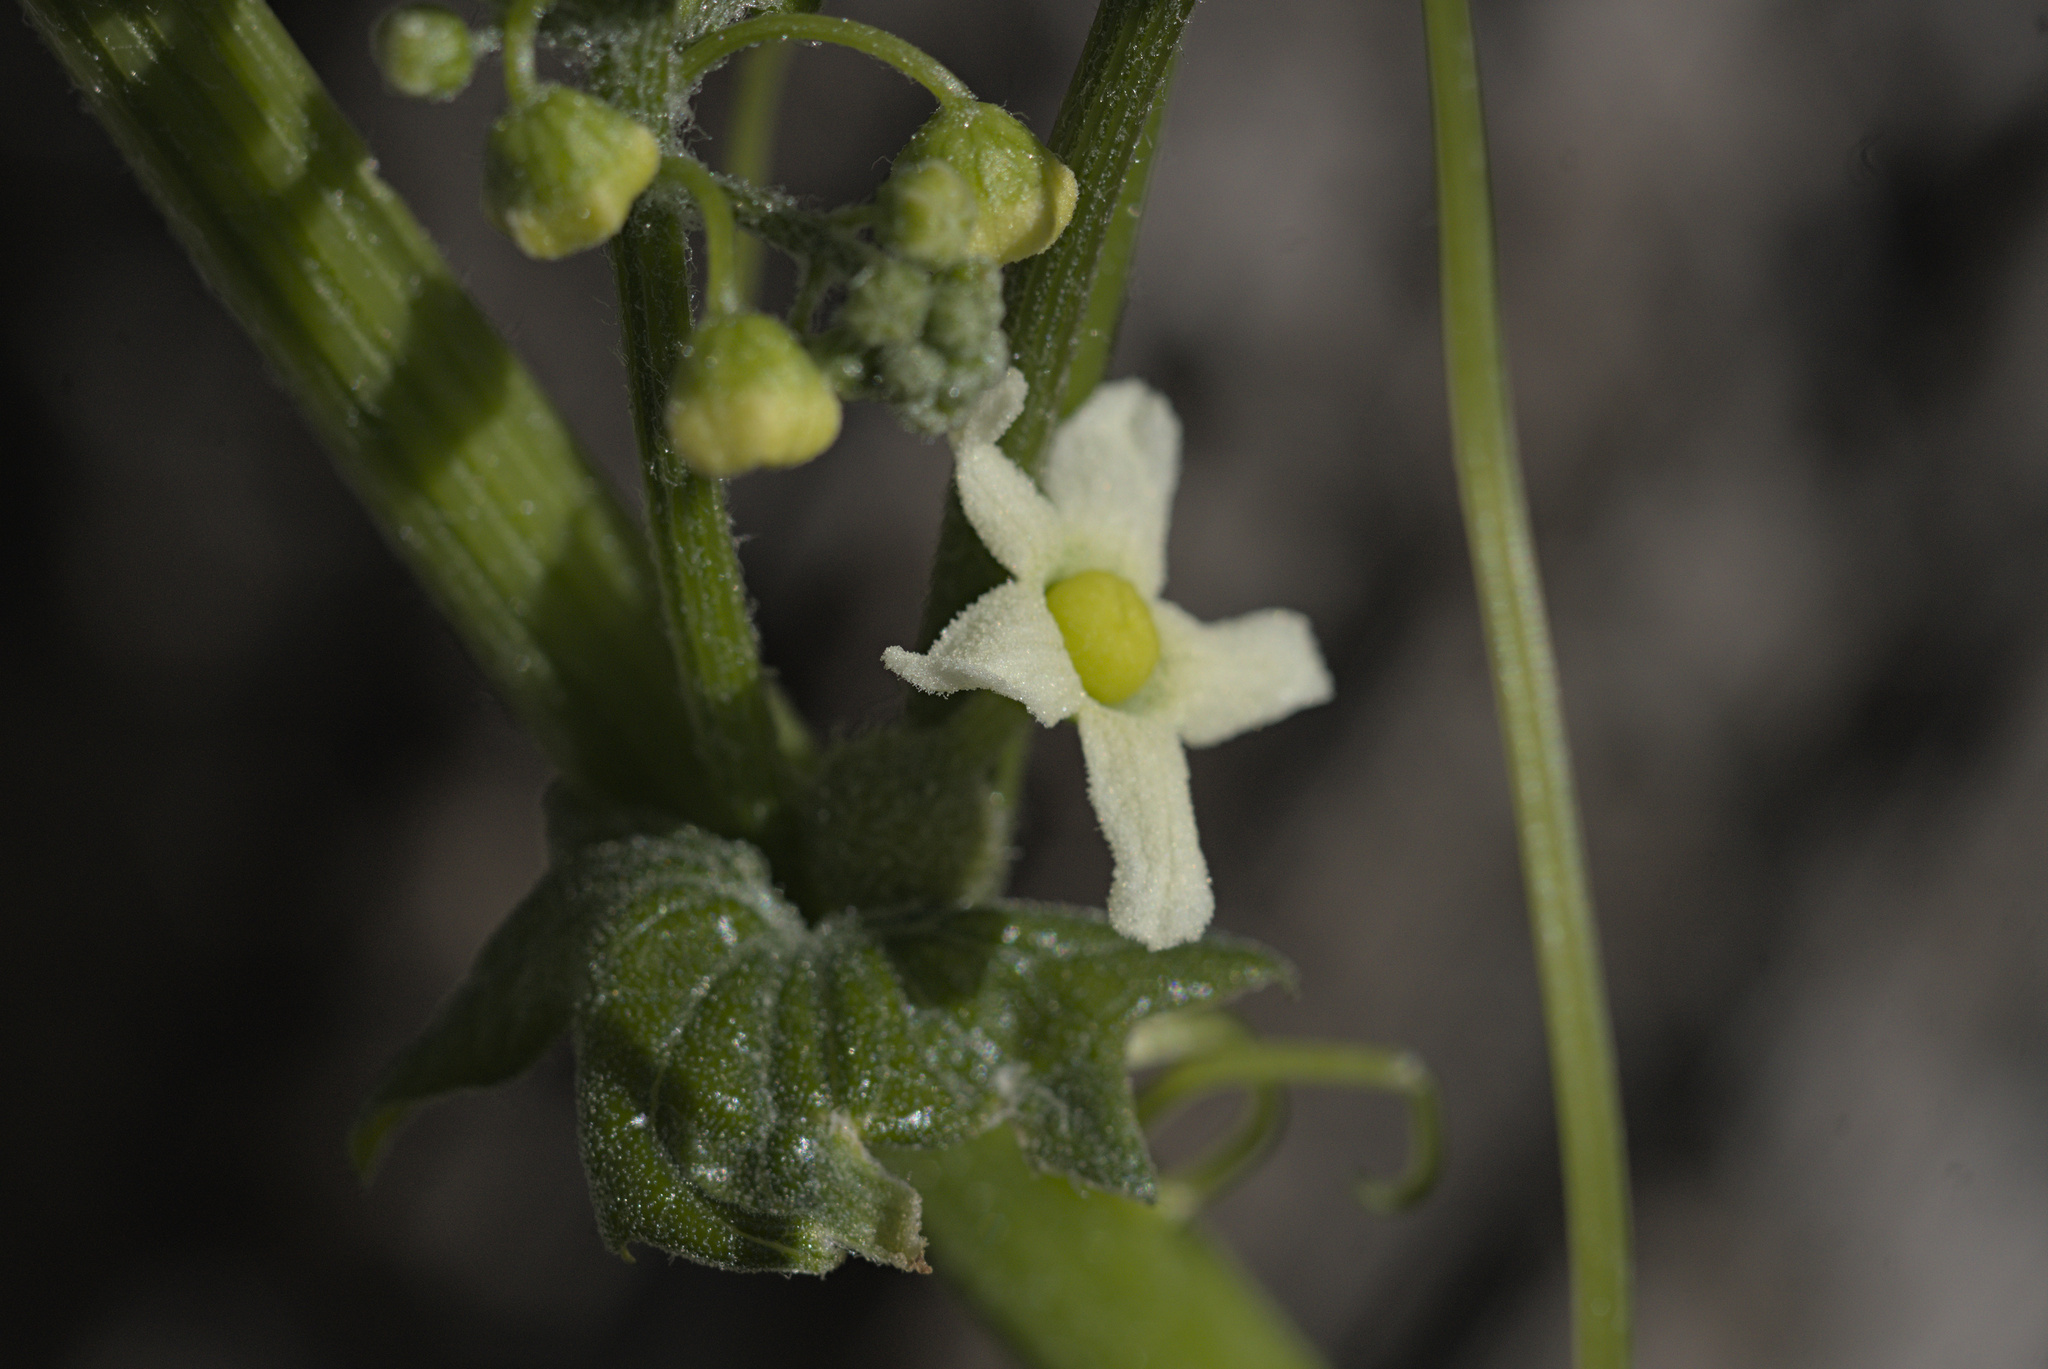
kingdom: Plantae
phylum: Tracheophyta
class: Magnoliopsida
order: Cucurbitales
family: Cucurbitaceae
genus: Marah
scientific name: Marah fabacea
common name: California manroot
